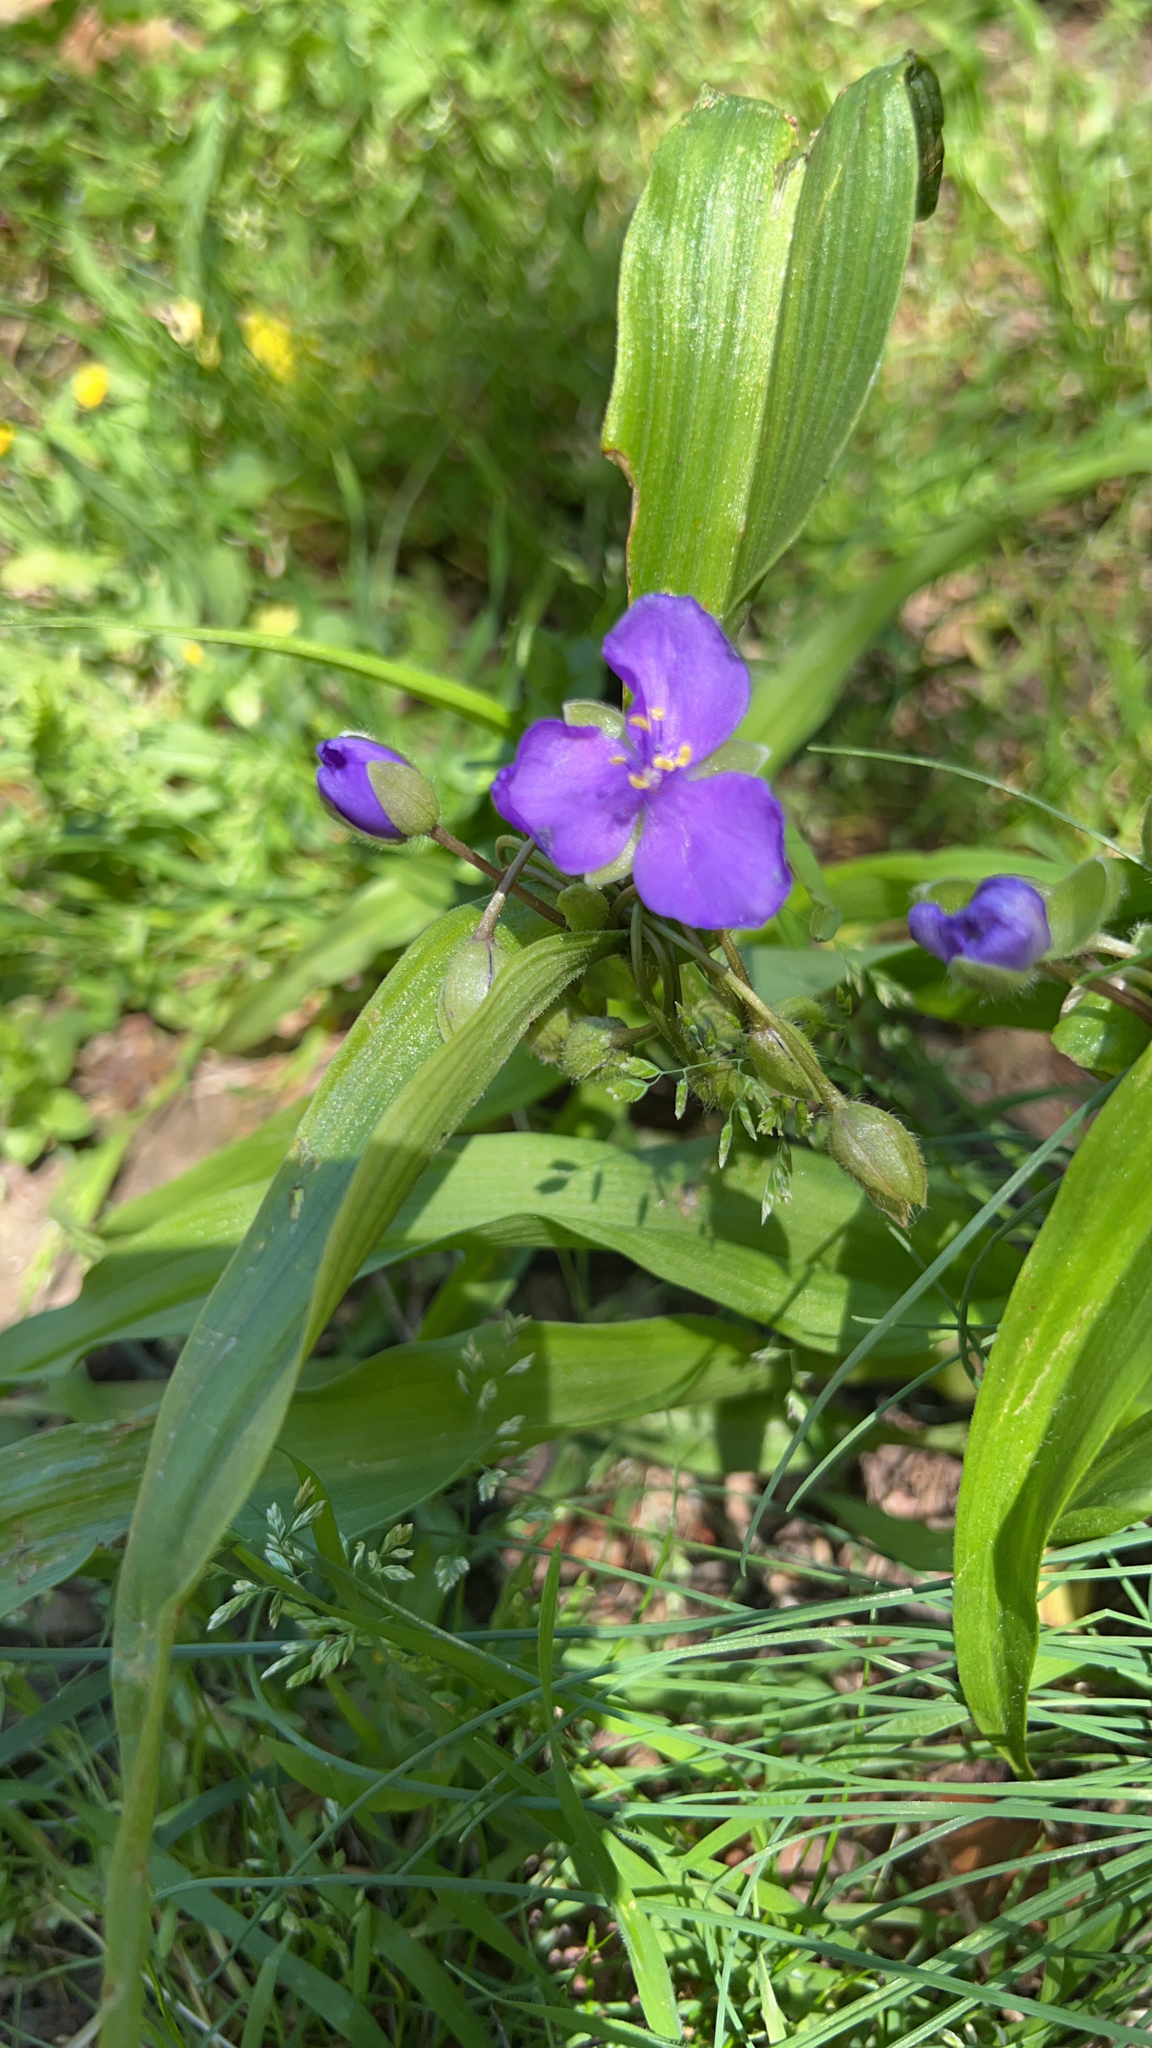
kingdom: Plantae
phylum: Tracheophyta
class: Liliopsida
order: Commelinales
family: Commelinaceae
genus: Tradescantia
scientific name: Tradescantia ernestiana
